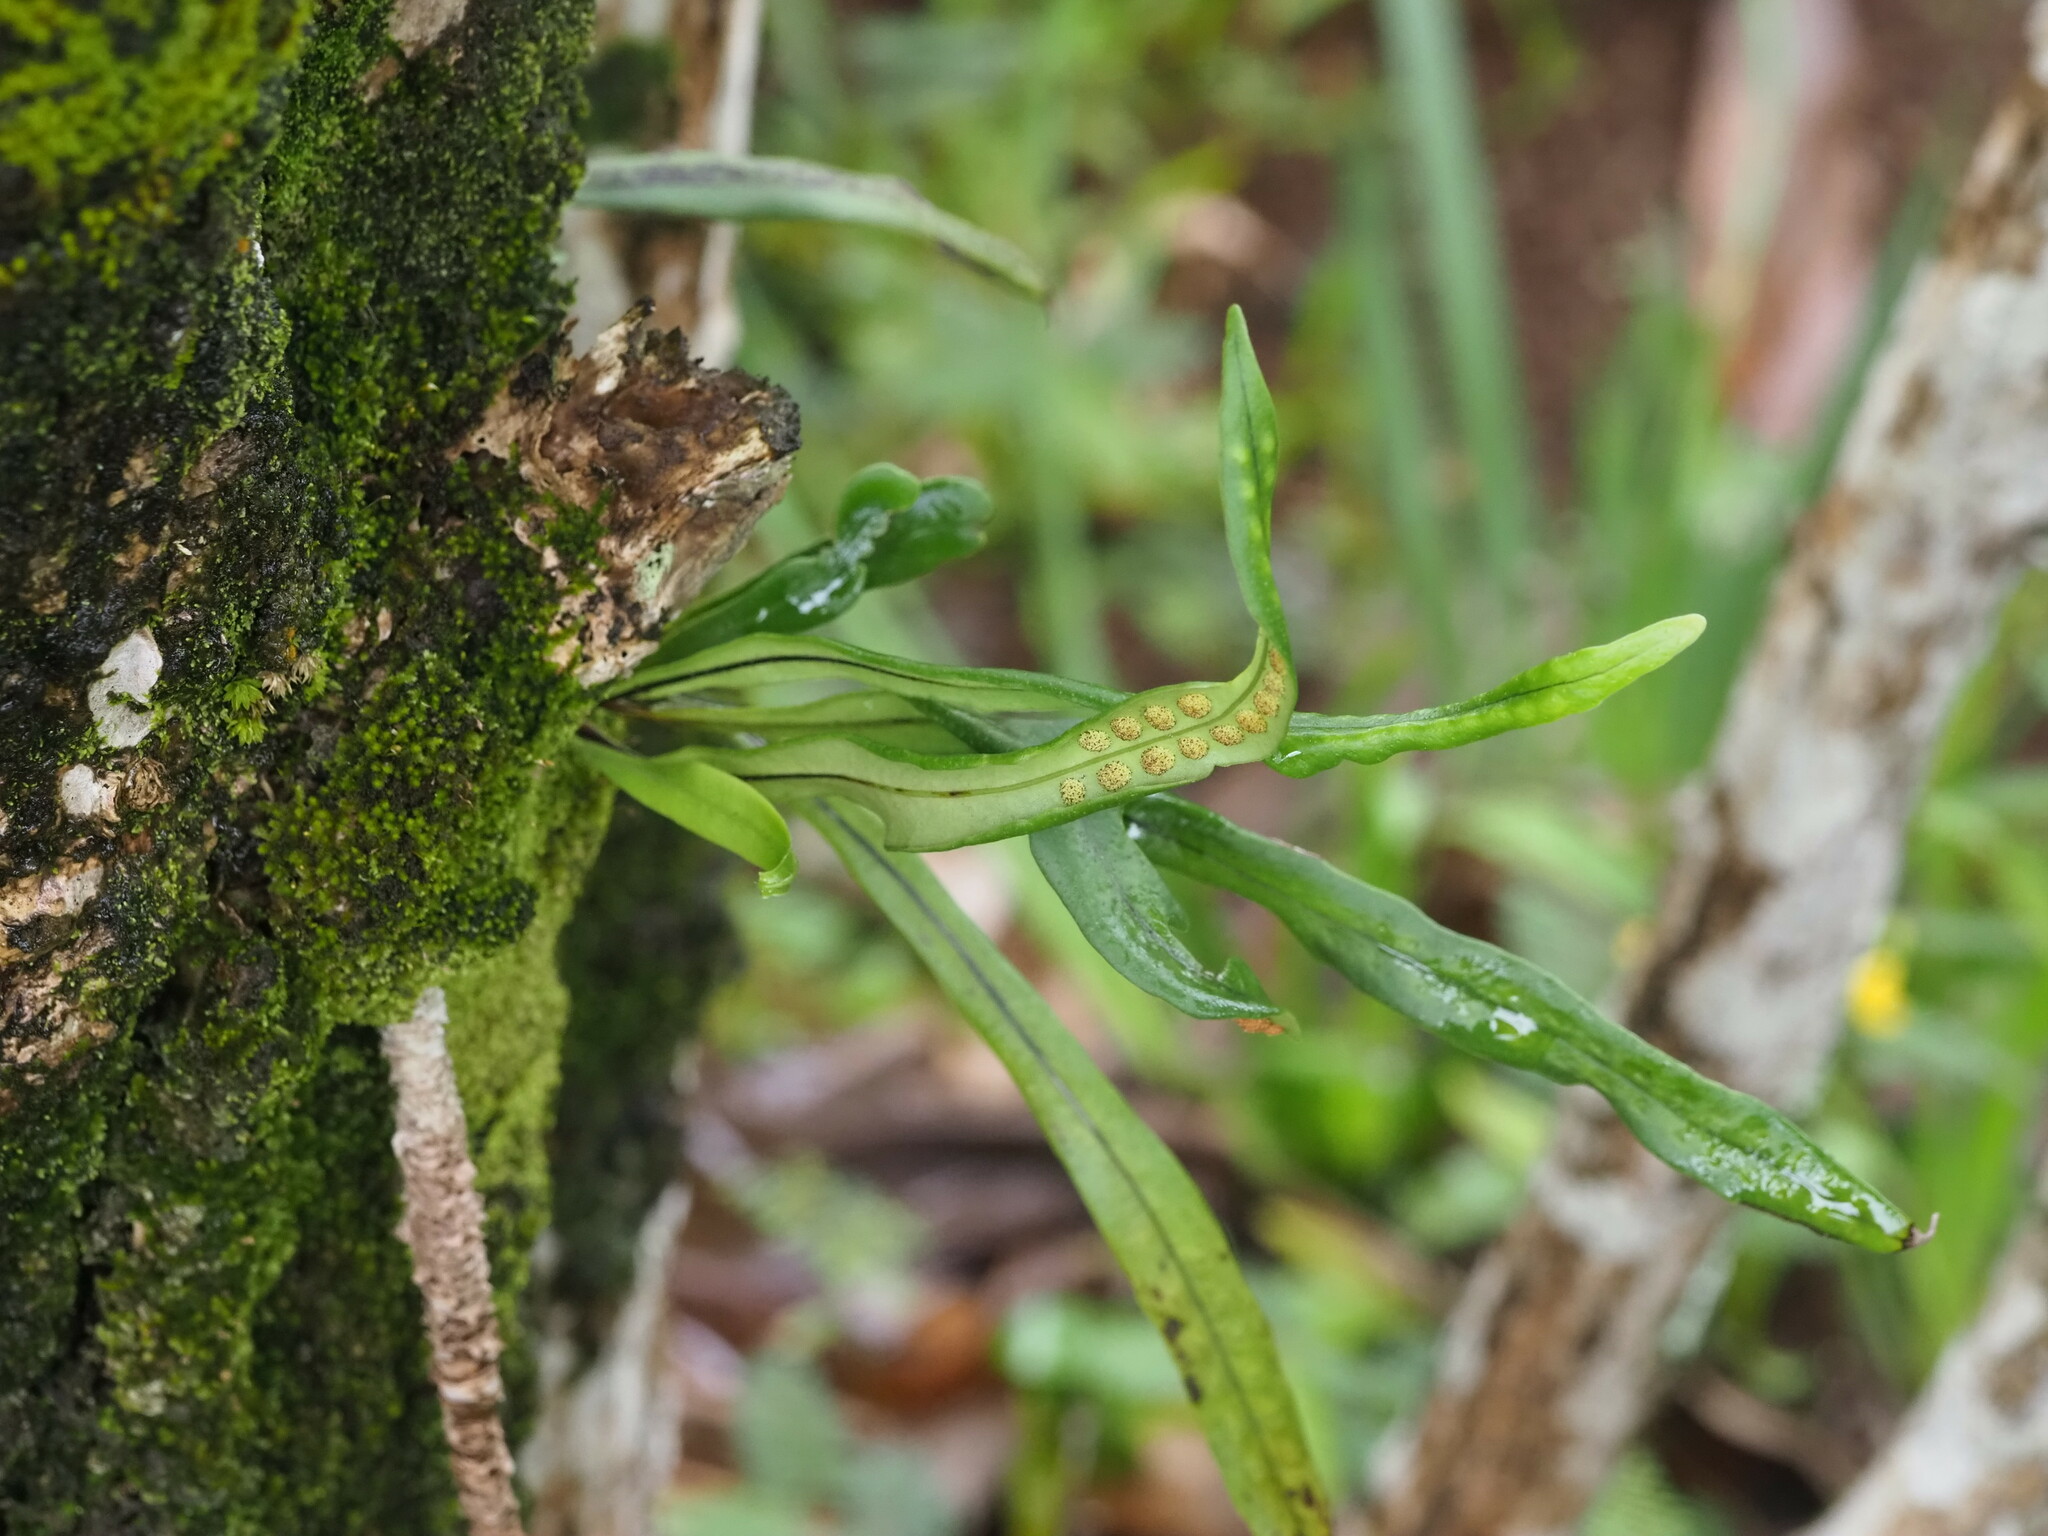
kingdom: Plantae
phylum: Tracheophyta
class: Polypodiopsida
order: Polypodiales
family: Polypodiaceae
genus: Lepisorus
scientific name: Lepisorus thunbergianus
